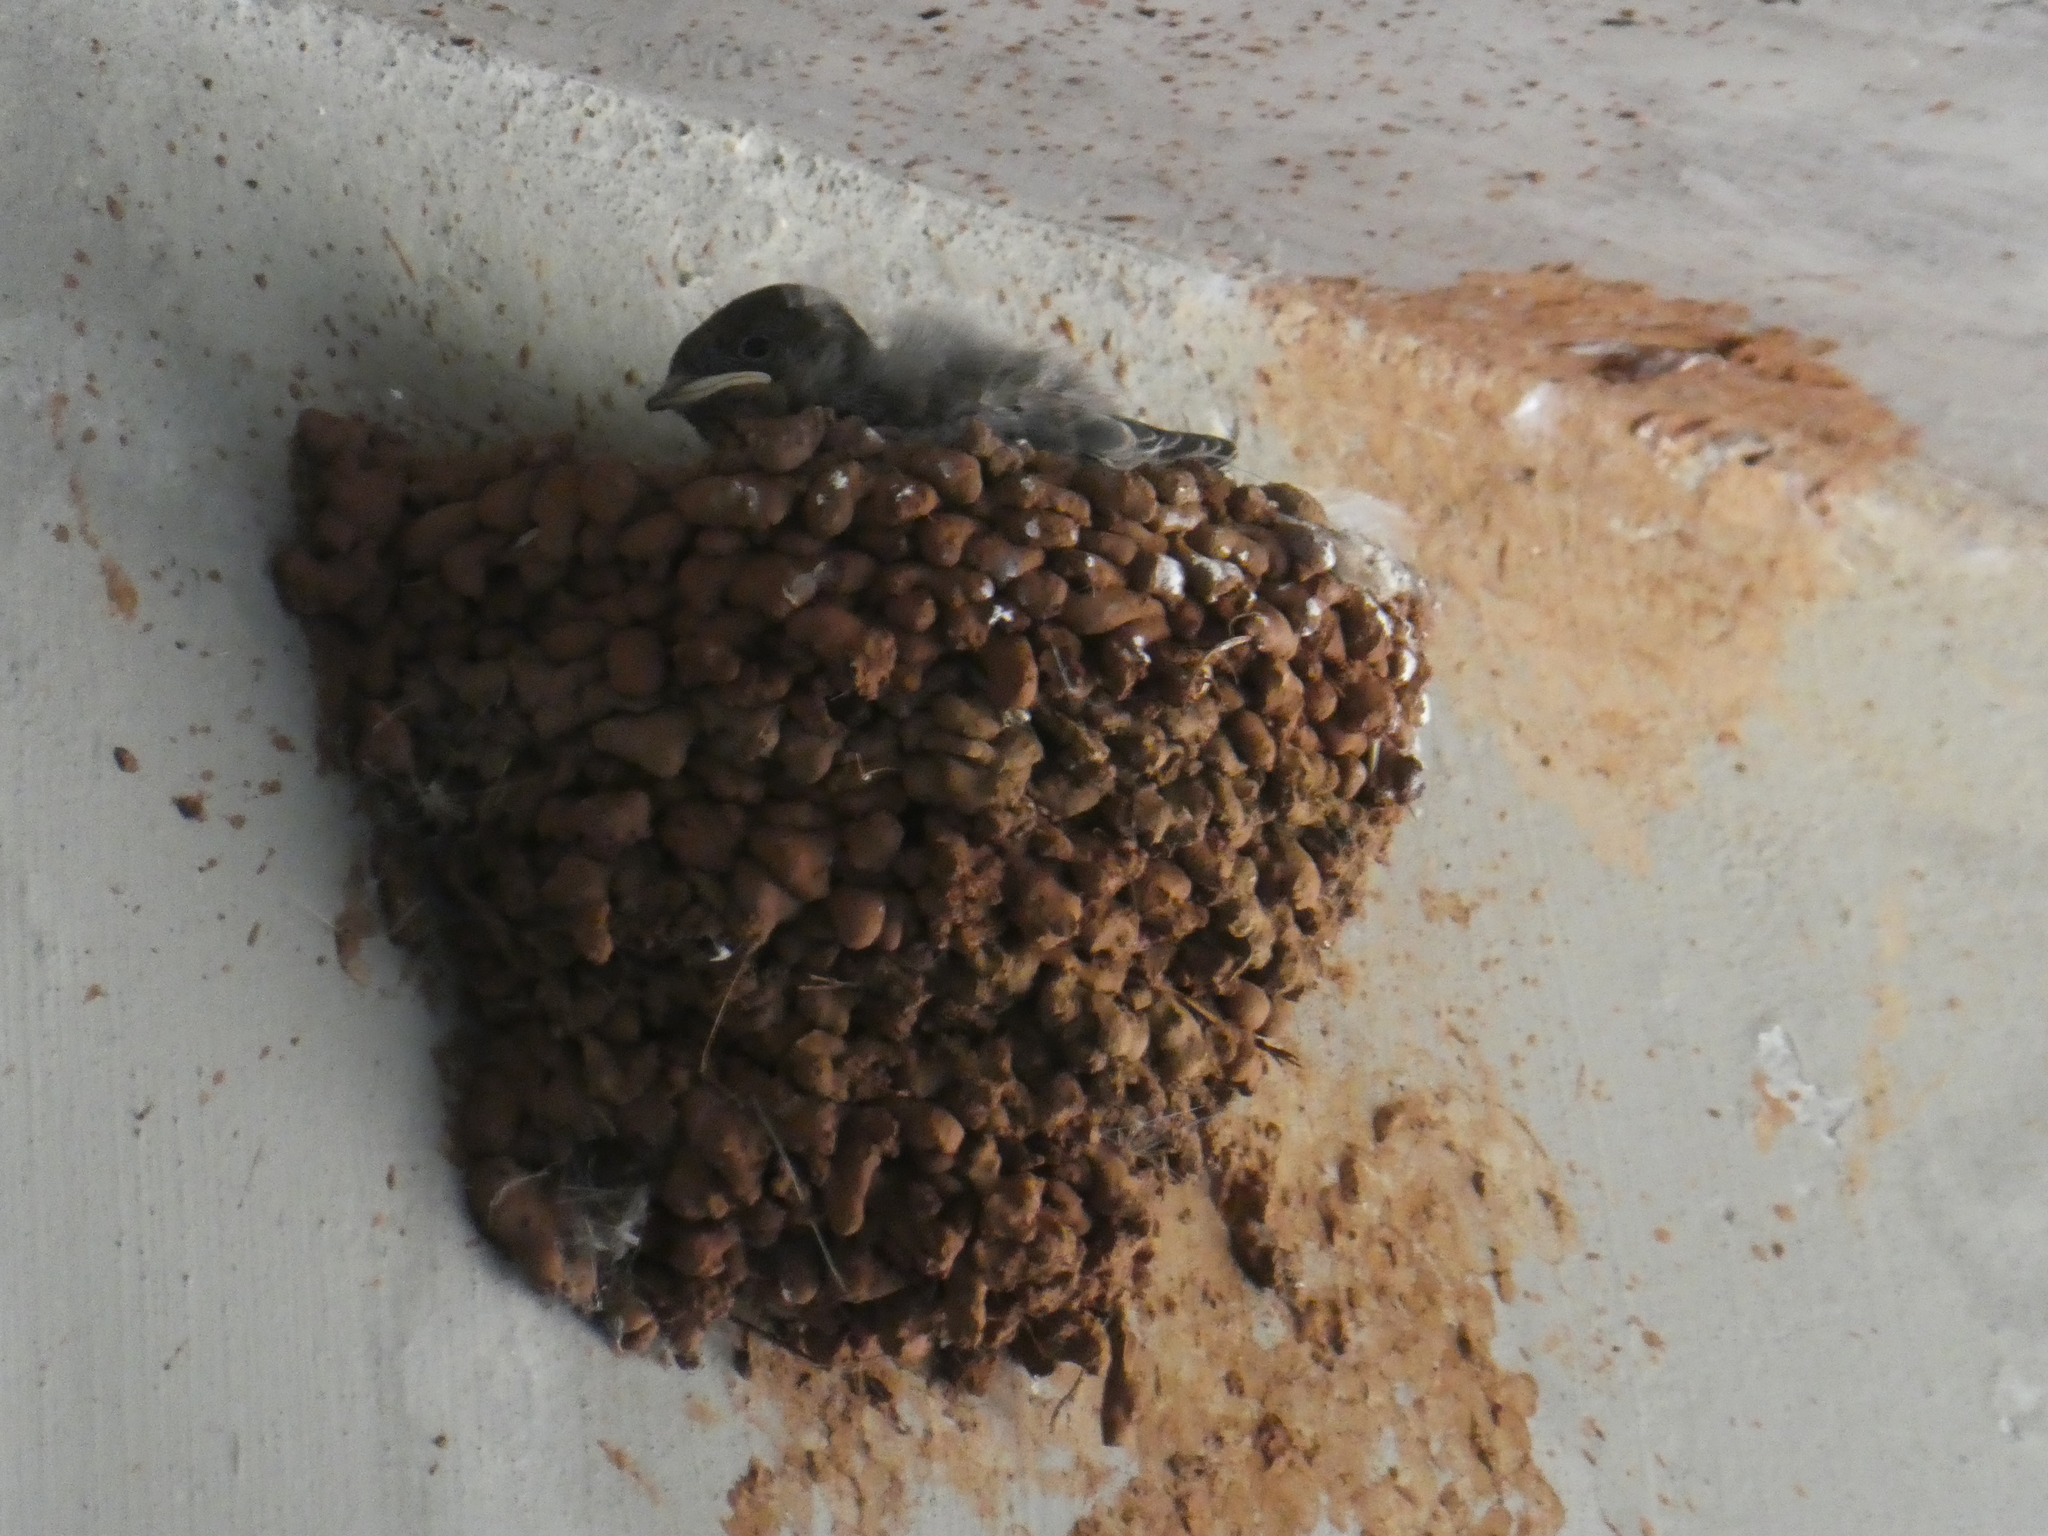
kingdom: Animalia
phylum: Chordata
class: Aves
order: Passeriformes
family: Hirundinidae
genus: Hirundo
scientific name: Hirundo rustica
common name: Barn swallow
